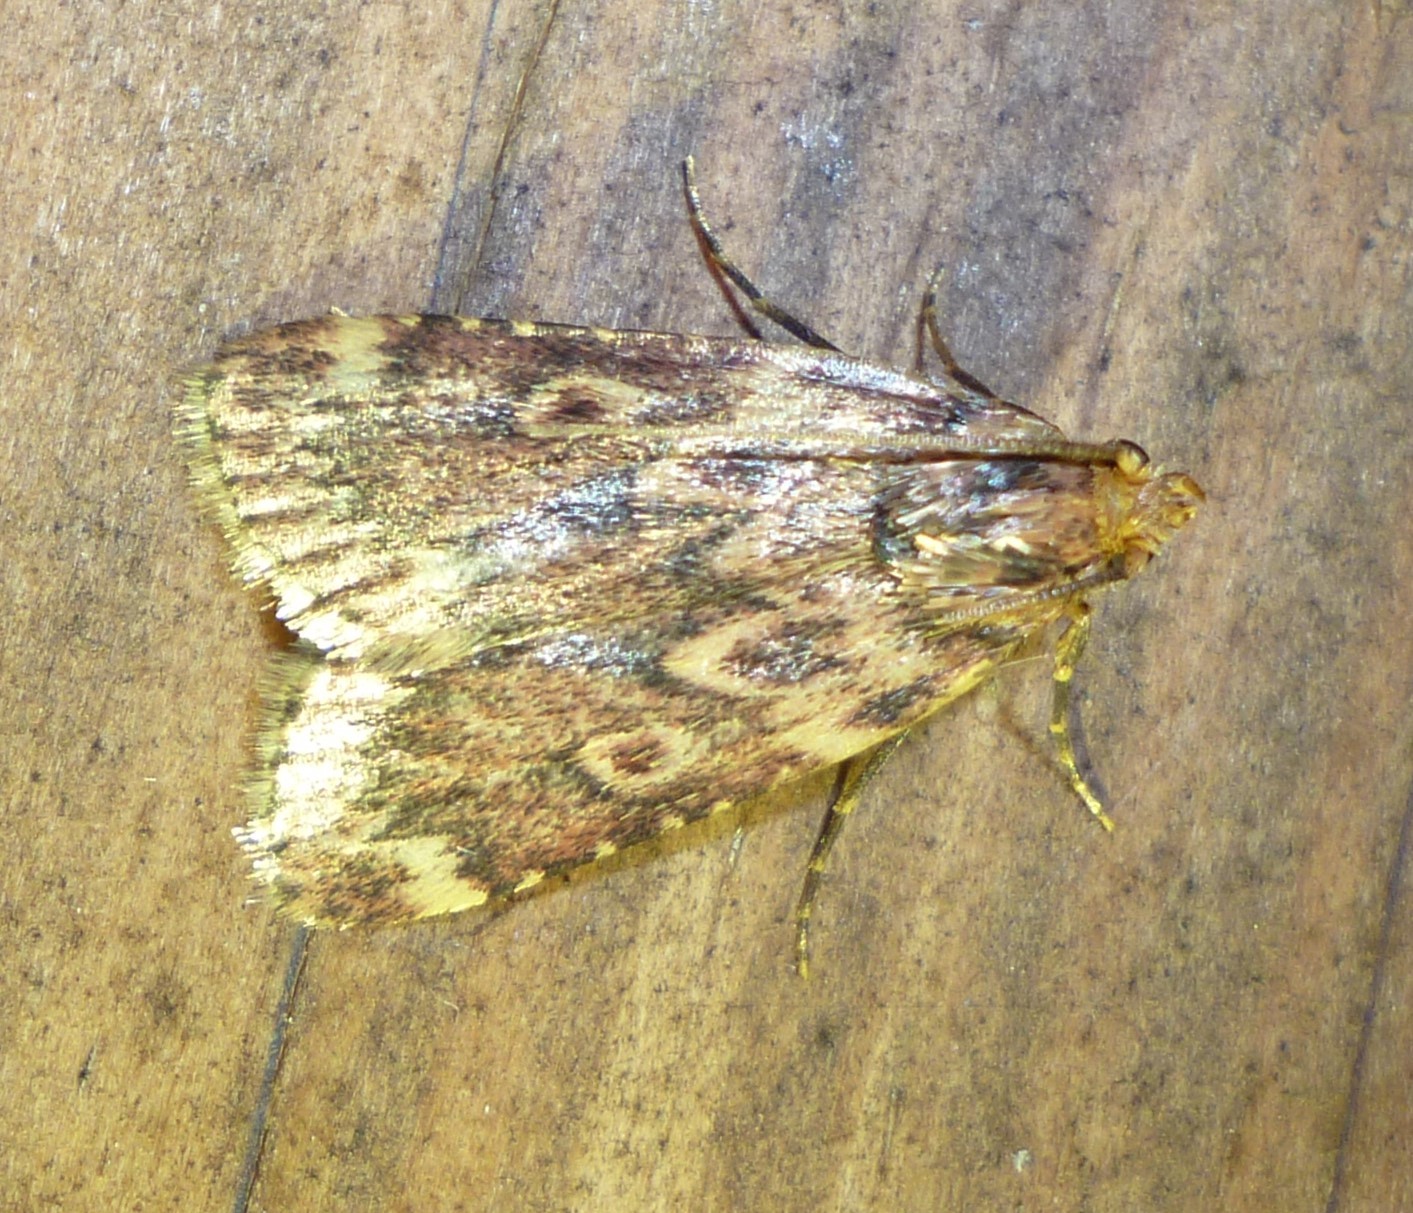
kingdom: Animalia
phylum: Arthropoda
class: Insecta
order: Lepidoptera
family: Pyralidae
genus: Aglossa
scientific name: Aglossa cuprina
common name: Grease moth
